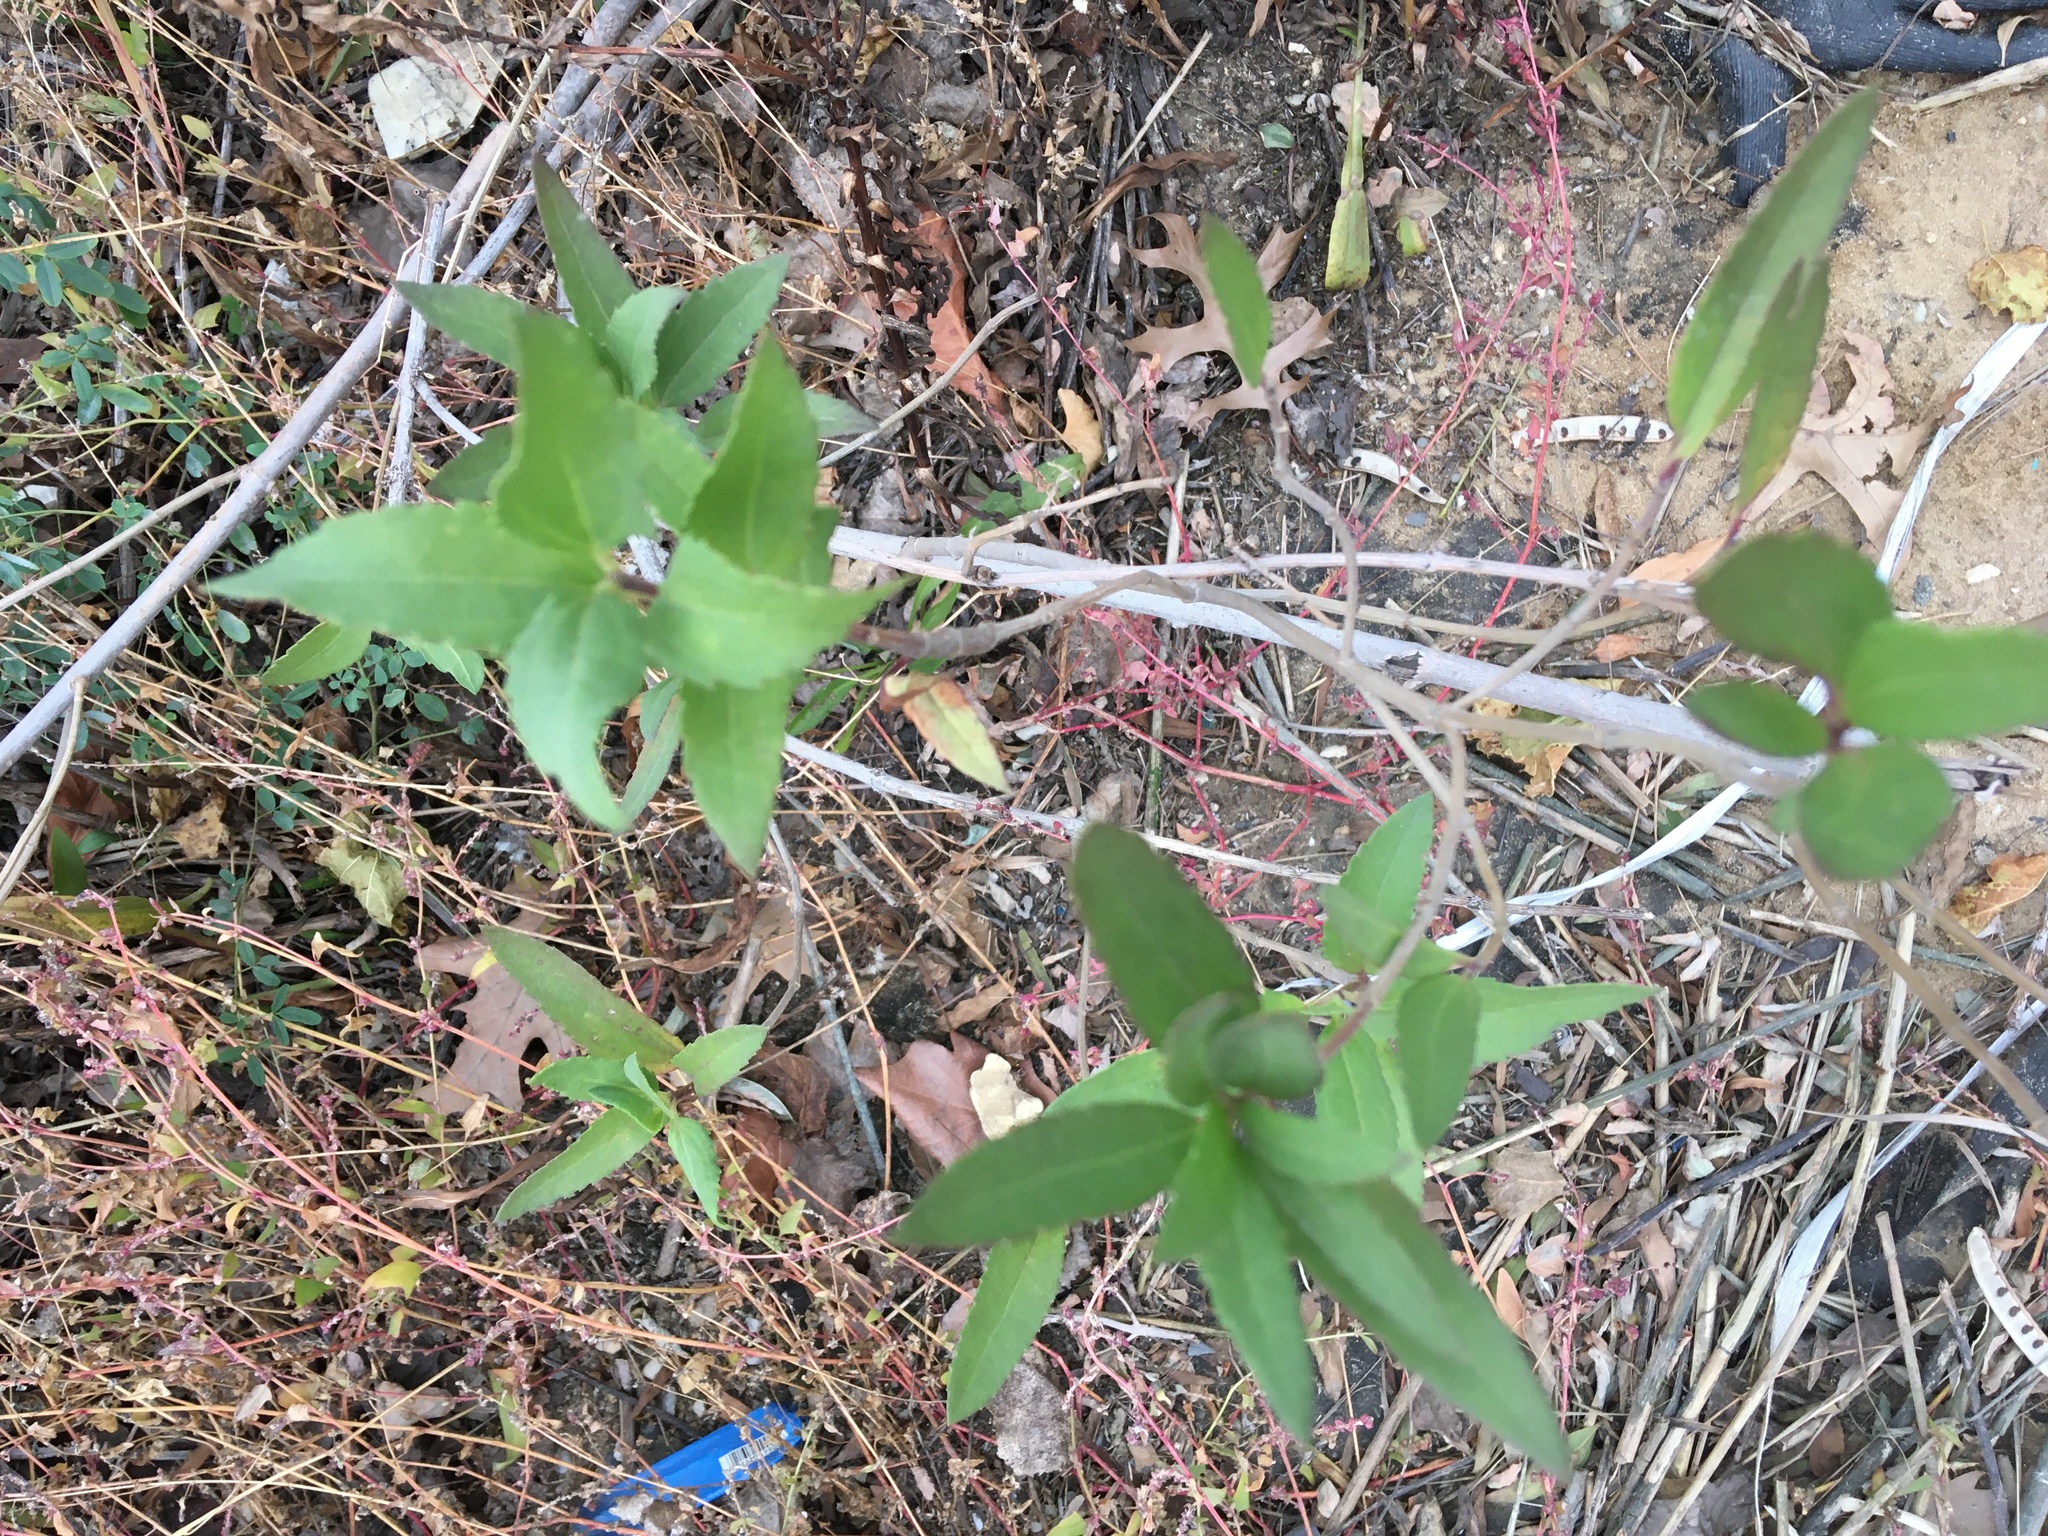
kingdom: Plantae
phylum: Tracheophyta
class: Magnoliopsida
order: Asterales
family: Asteraceae
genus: Iva
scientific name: Iva frutescens
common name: Big-leaved marsh-elder
